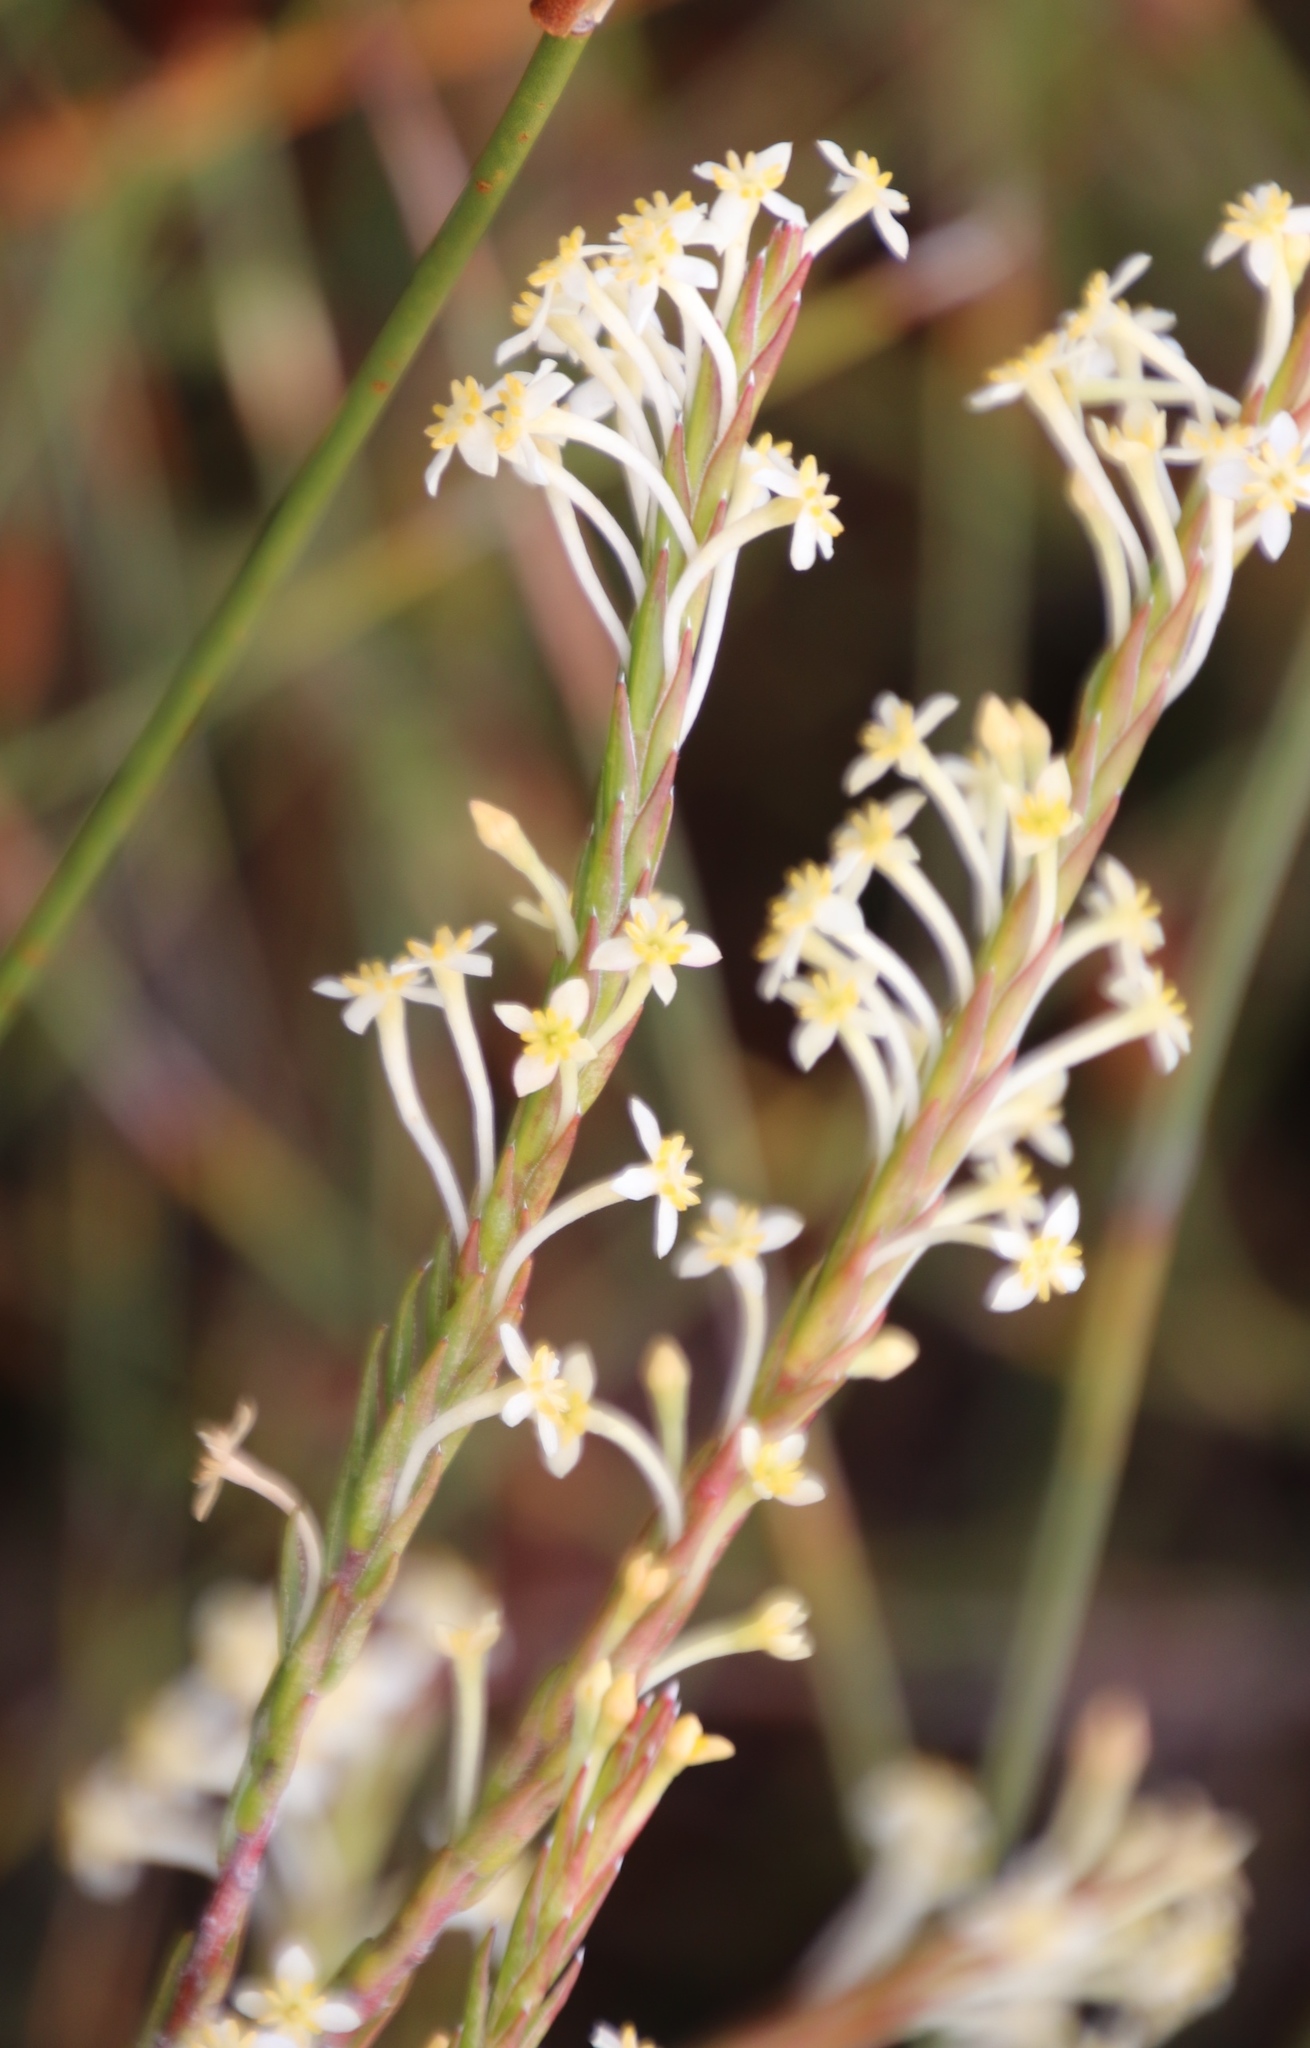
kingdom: Plantae
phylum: Tracheophyta
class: Magnoliopsida
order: Malvales
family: Thymelaeaceae
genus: Struthiola
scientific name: Struthiola ciliata
